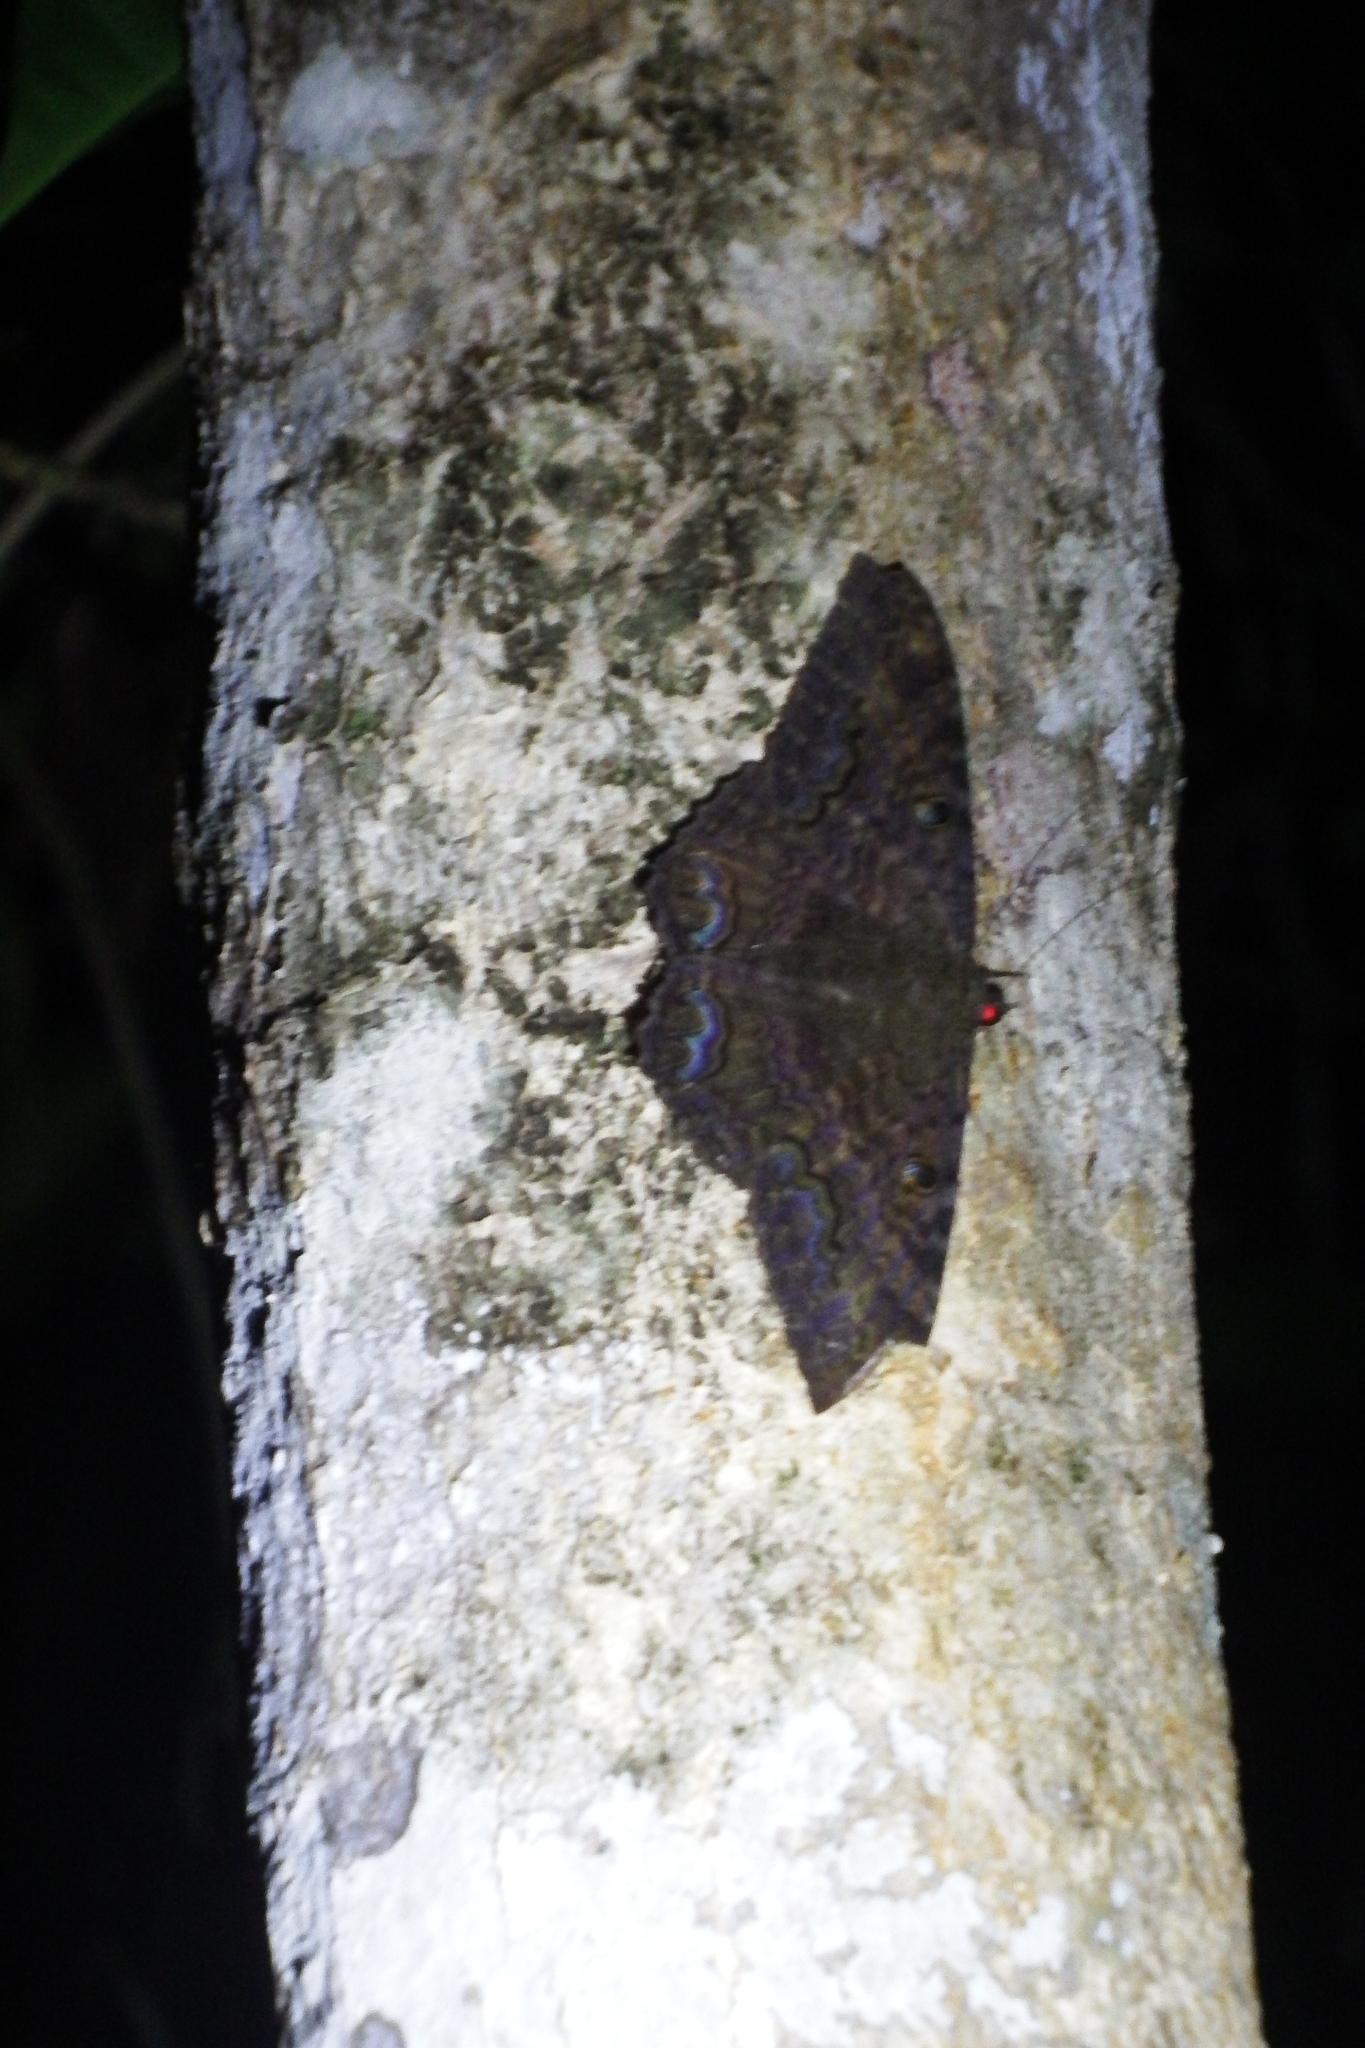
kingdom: Animalia
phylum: Arthropoda
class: Insecta
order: Lepidoptera
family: Erebidae
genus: Ascalapha
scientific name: Ascalapha odorata
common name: Black witch
